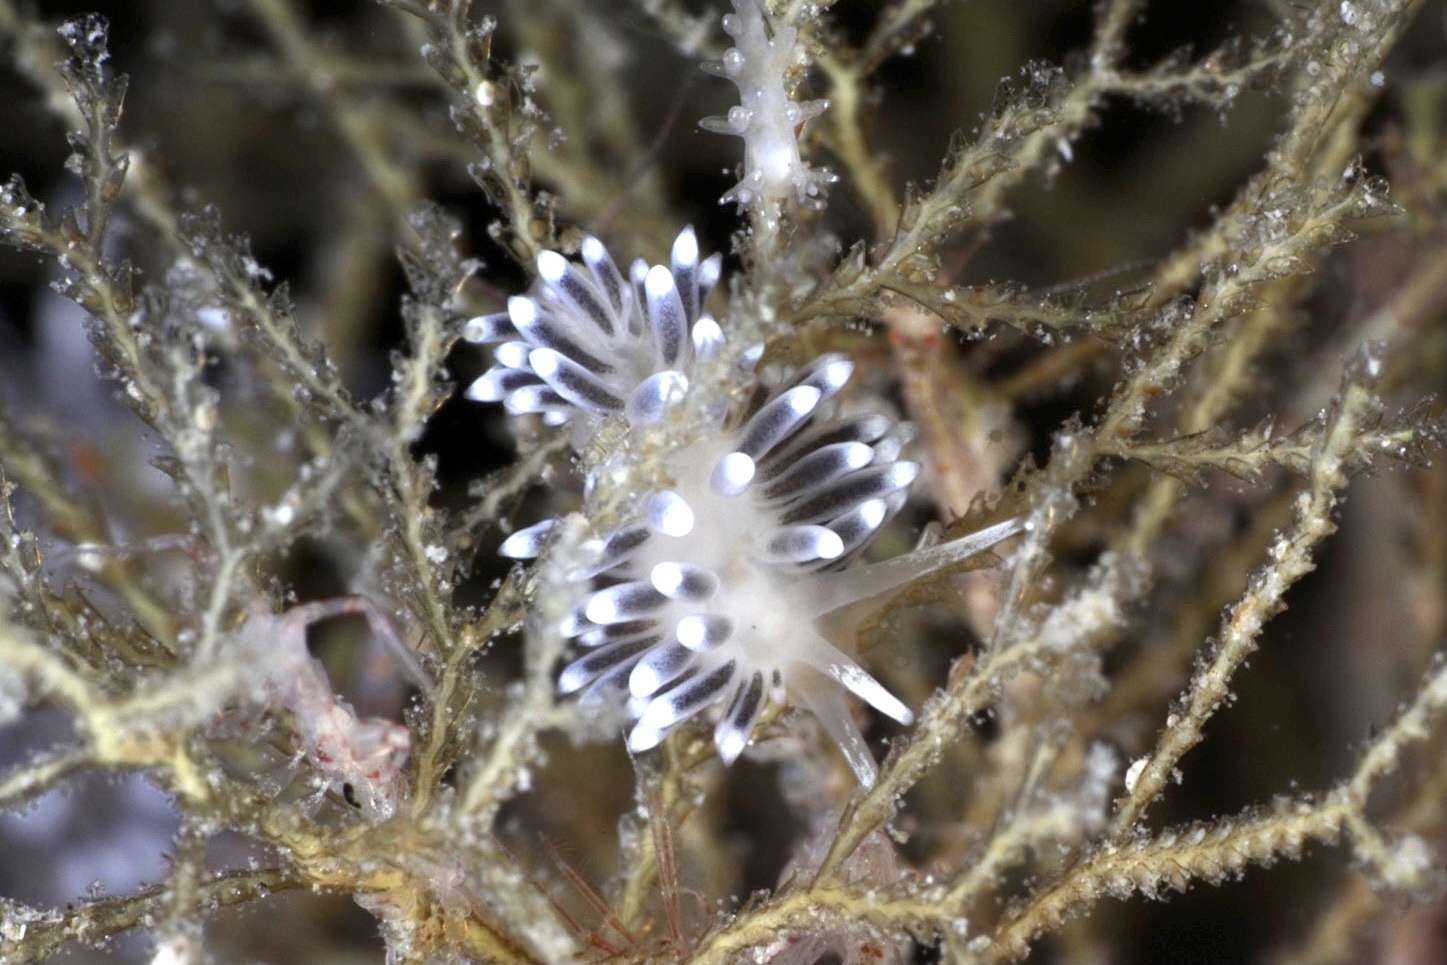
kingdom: Animalia
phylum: Mollusca
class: Gastropoda
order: Nudibranchia
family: Cuthonellidae
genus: Cuthonella
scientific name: Cuthonella concinna
